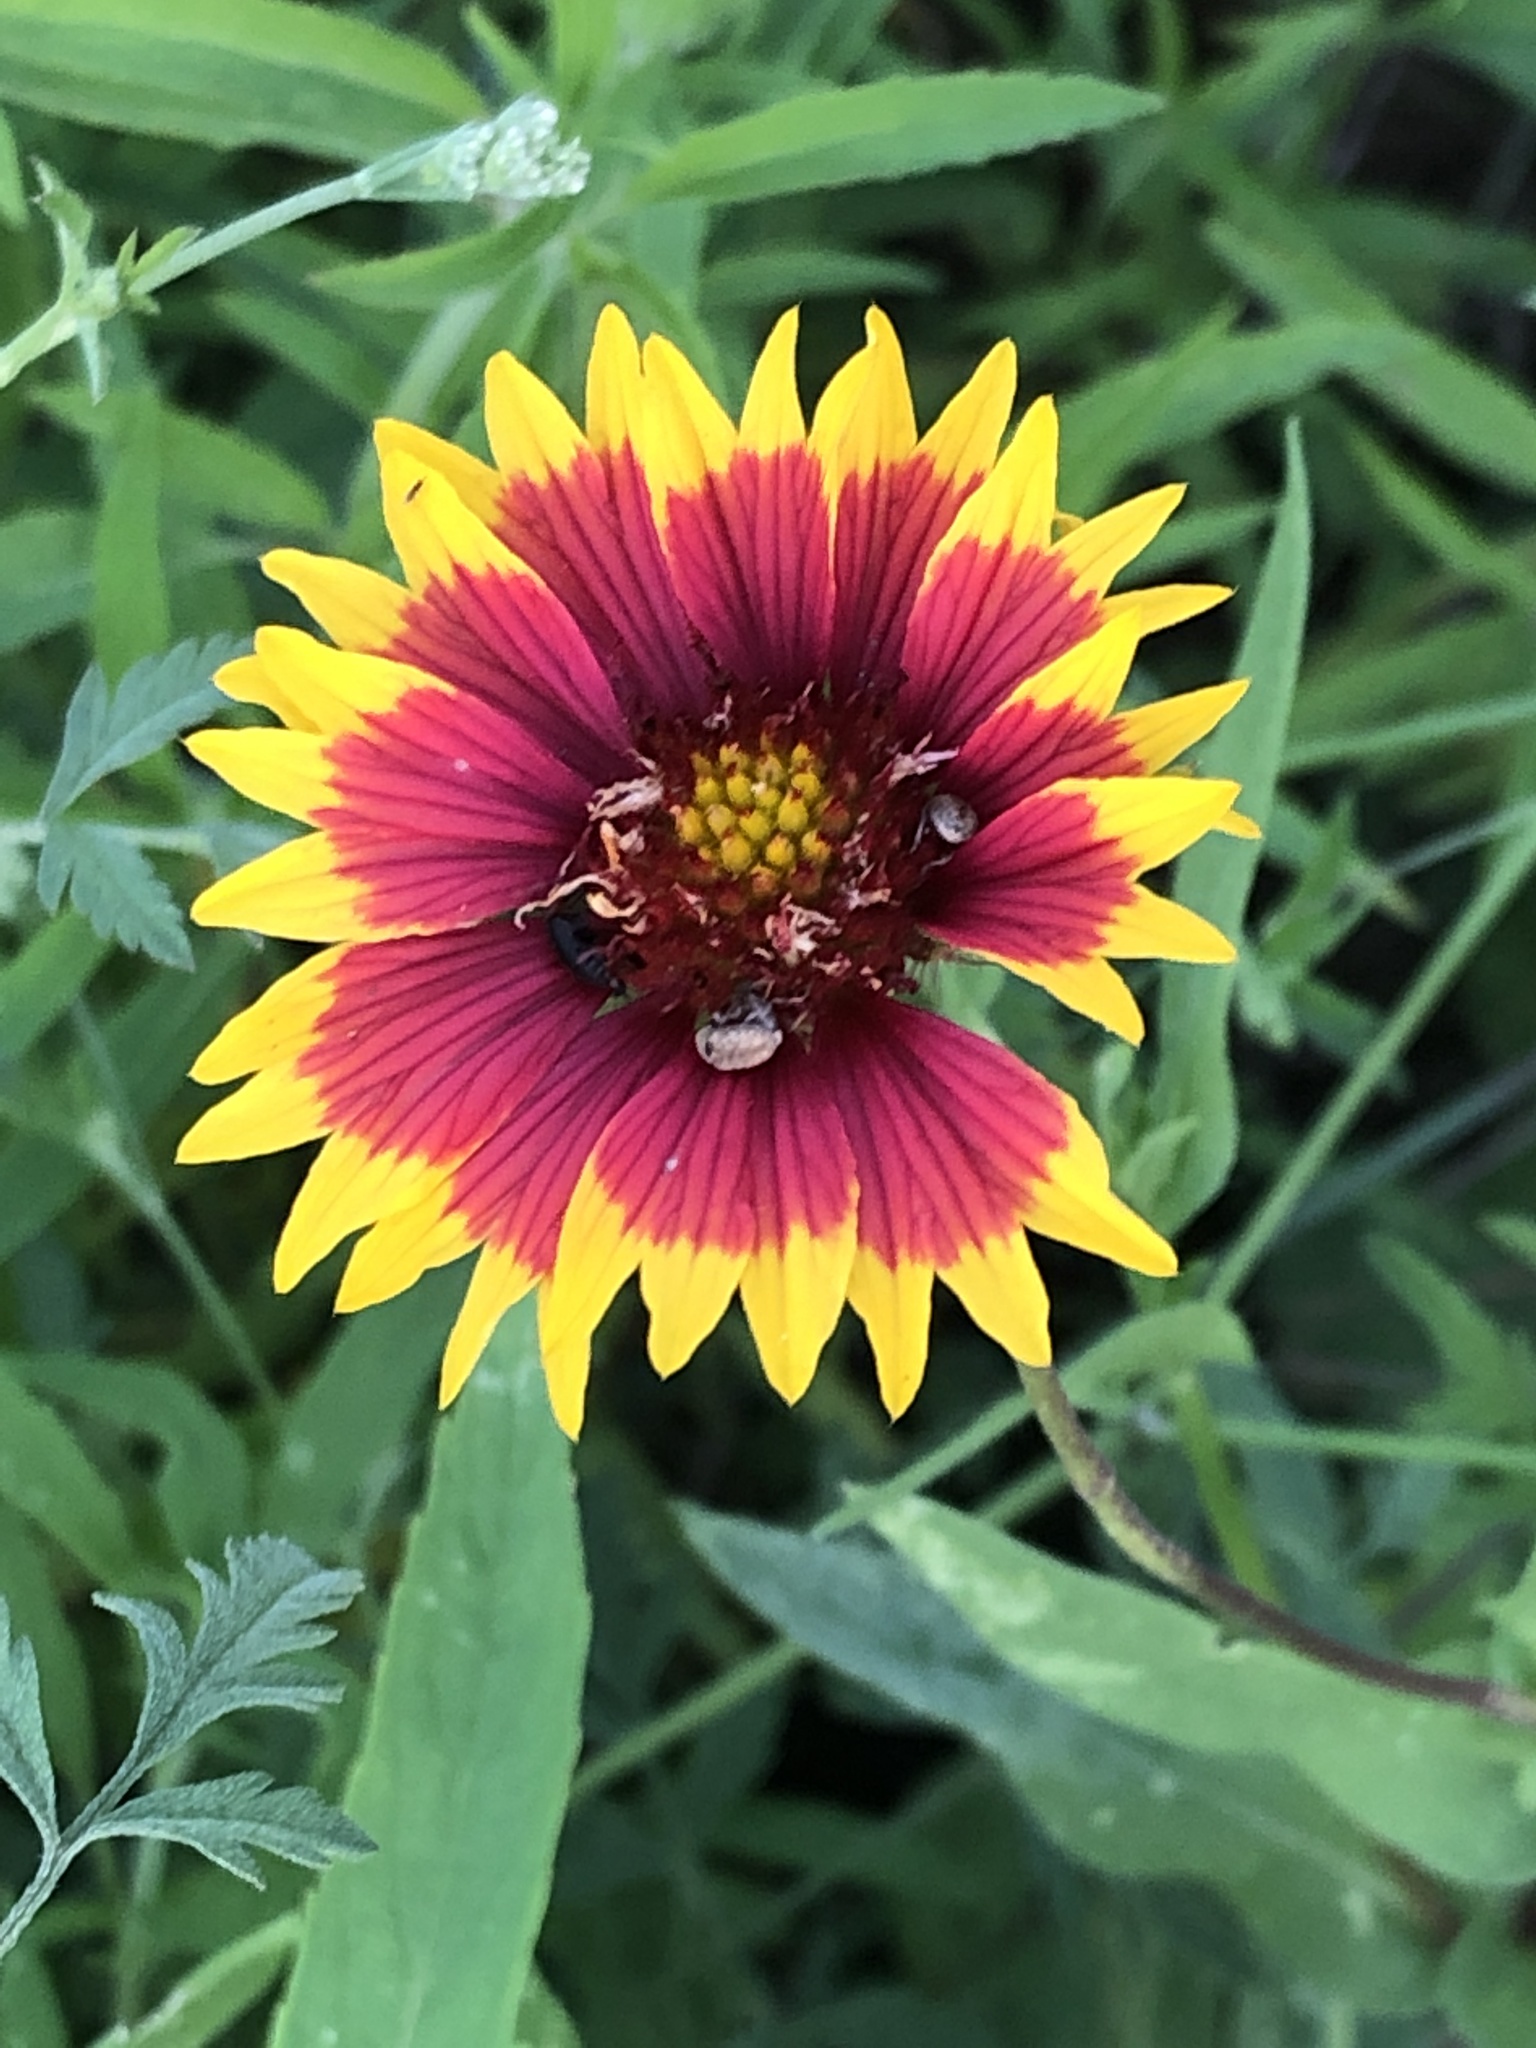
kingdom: Plantae
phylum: Tracheophyta
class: Magnoliopsida
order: Asterales
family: Asteraceae
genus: Gaillardia
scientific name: Gaillardia pulchella
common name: Firewheel
